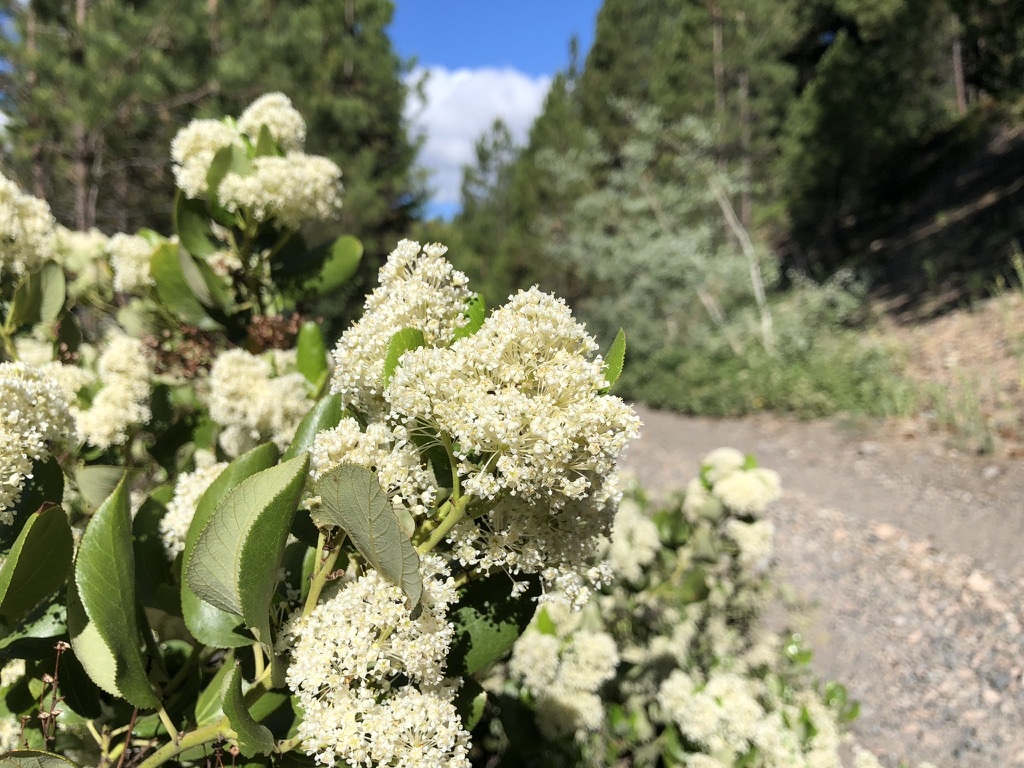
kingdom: Plantae
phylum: Tracheophyta
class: Magnoliopsida
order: Rosales
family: Rhamnaceae
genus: Ceanothus
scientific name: Ceanothus velutinus
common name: Snowbrush
